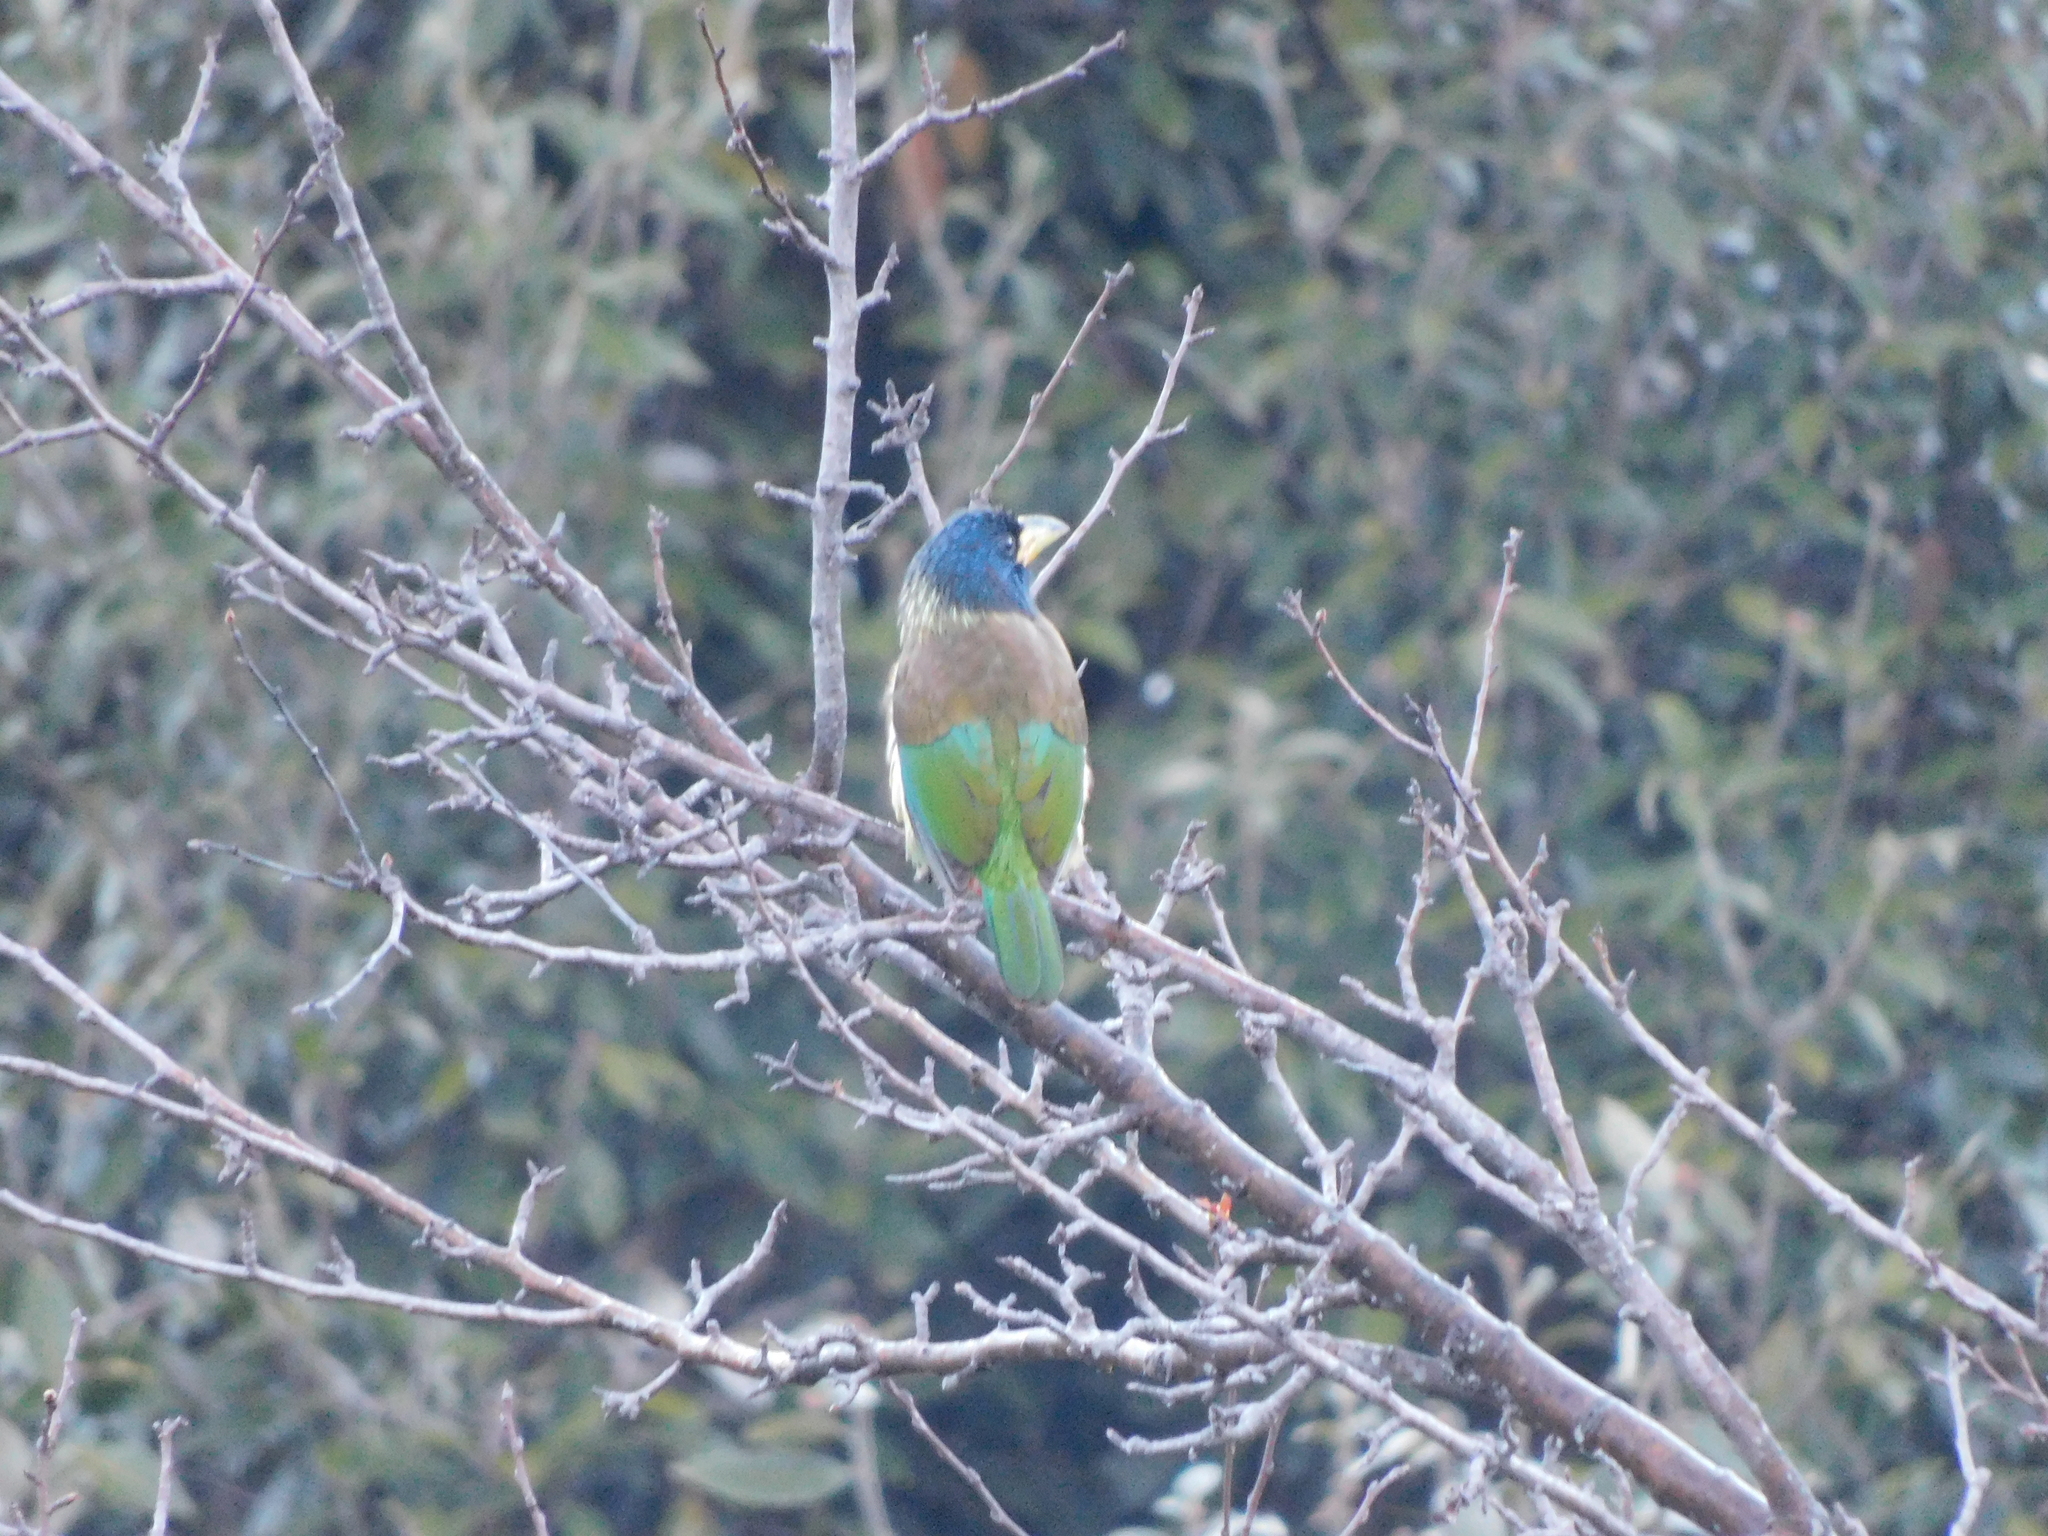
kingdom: Animalia
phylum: Chordata
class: Aves
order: Piciformes
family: Megalaimidae
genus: Psilopogon
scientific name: Psilopogon virens
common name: Great barbet
